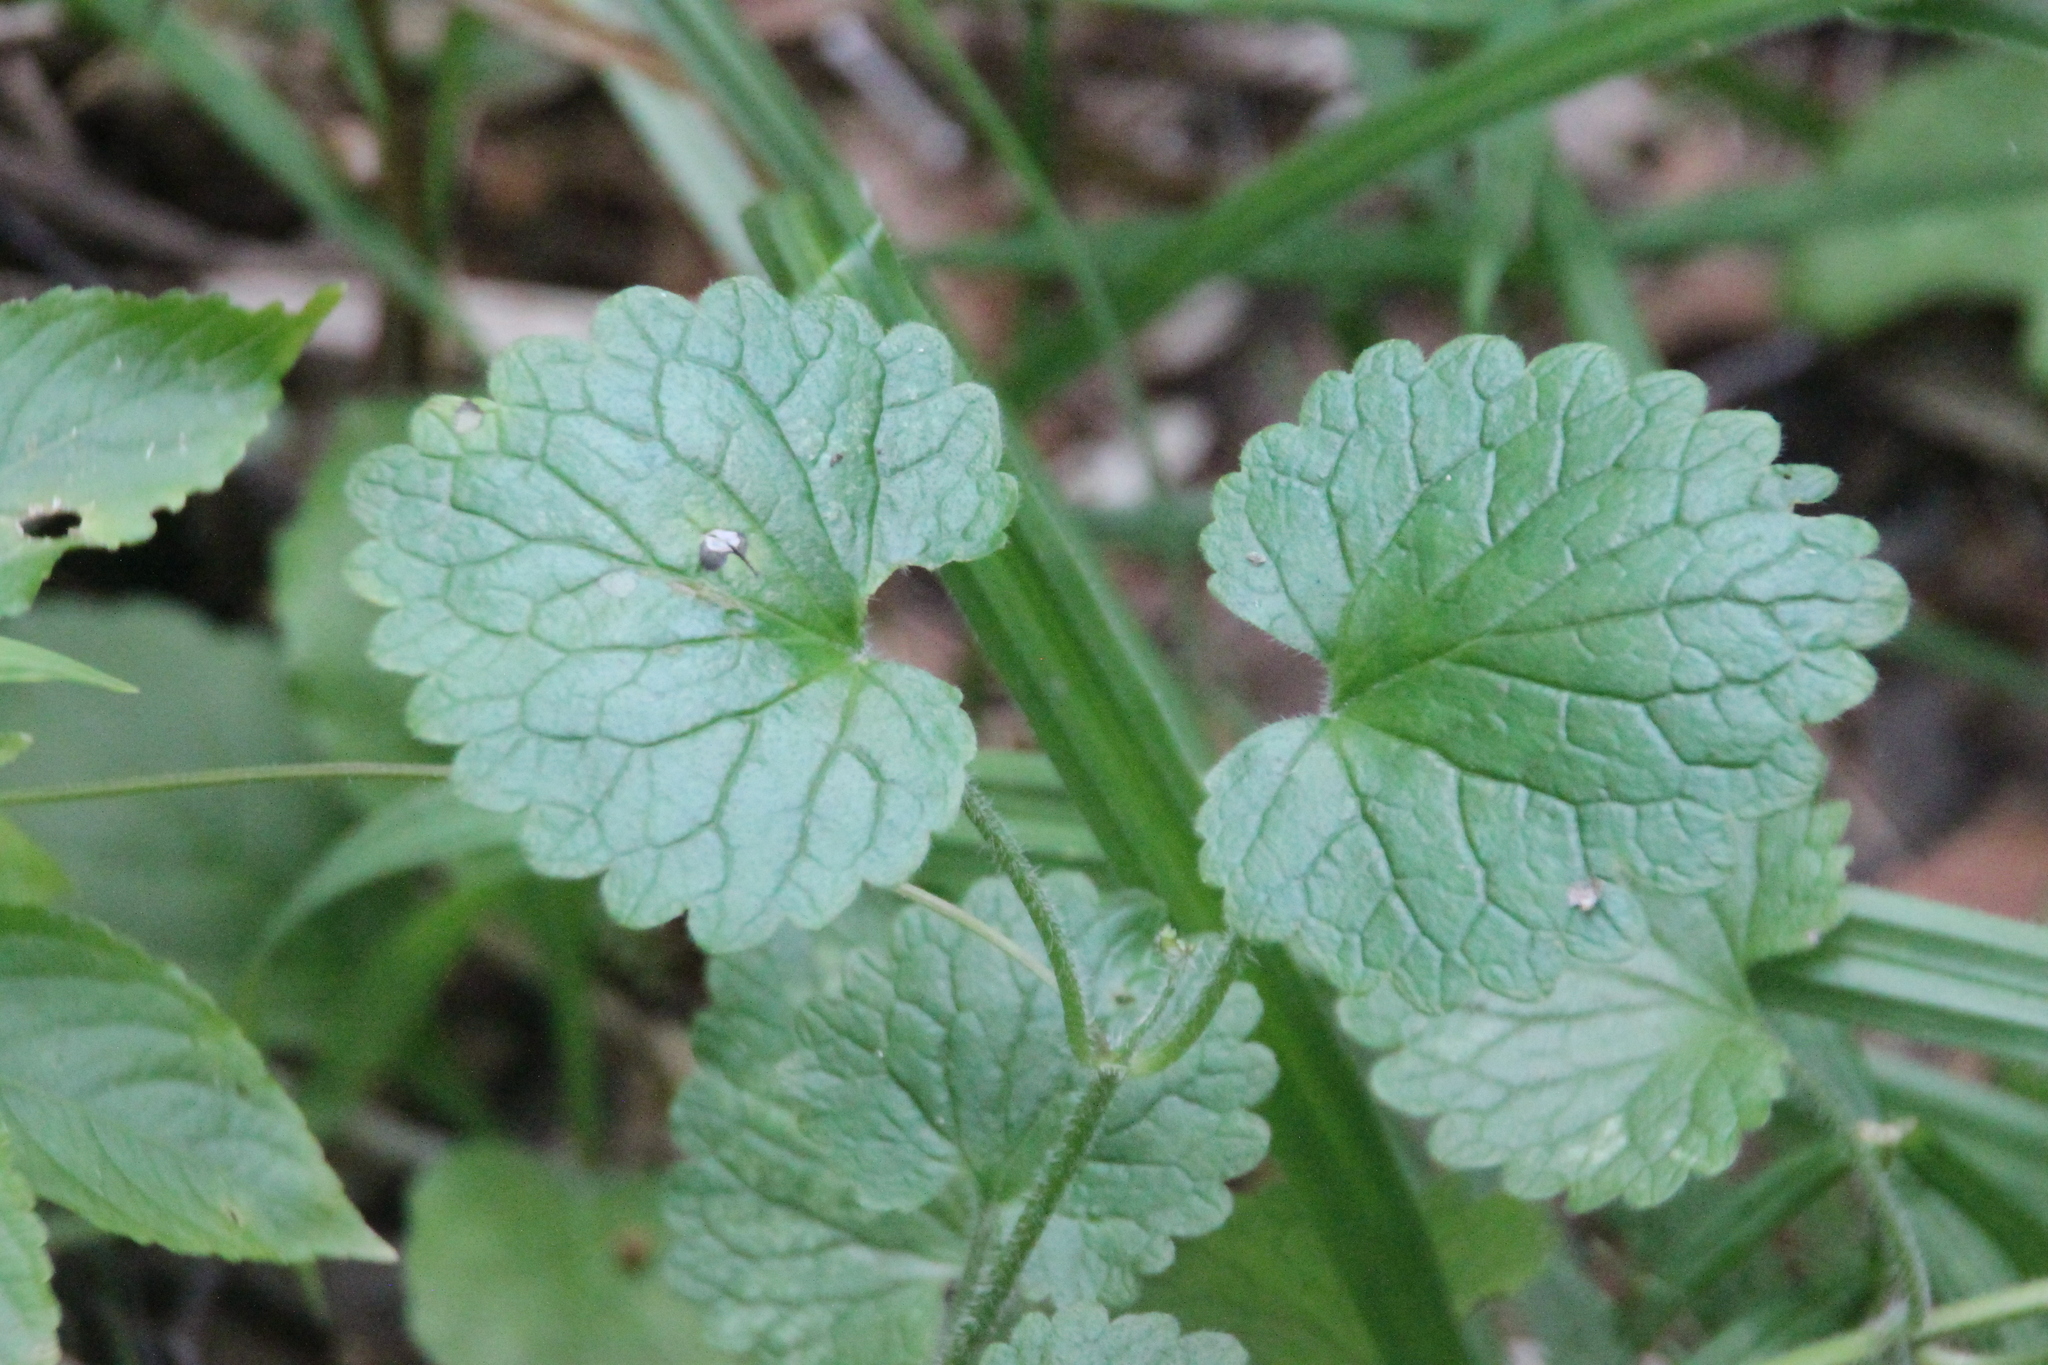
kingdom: Plantae
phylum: Tracheophyta
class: Magnoliopsida
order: Lamiales
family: Lamiaceae
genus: Glechoma
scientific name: Glechoma hederacea
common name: Ground ivy
